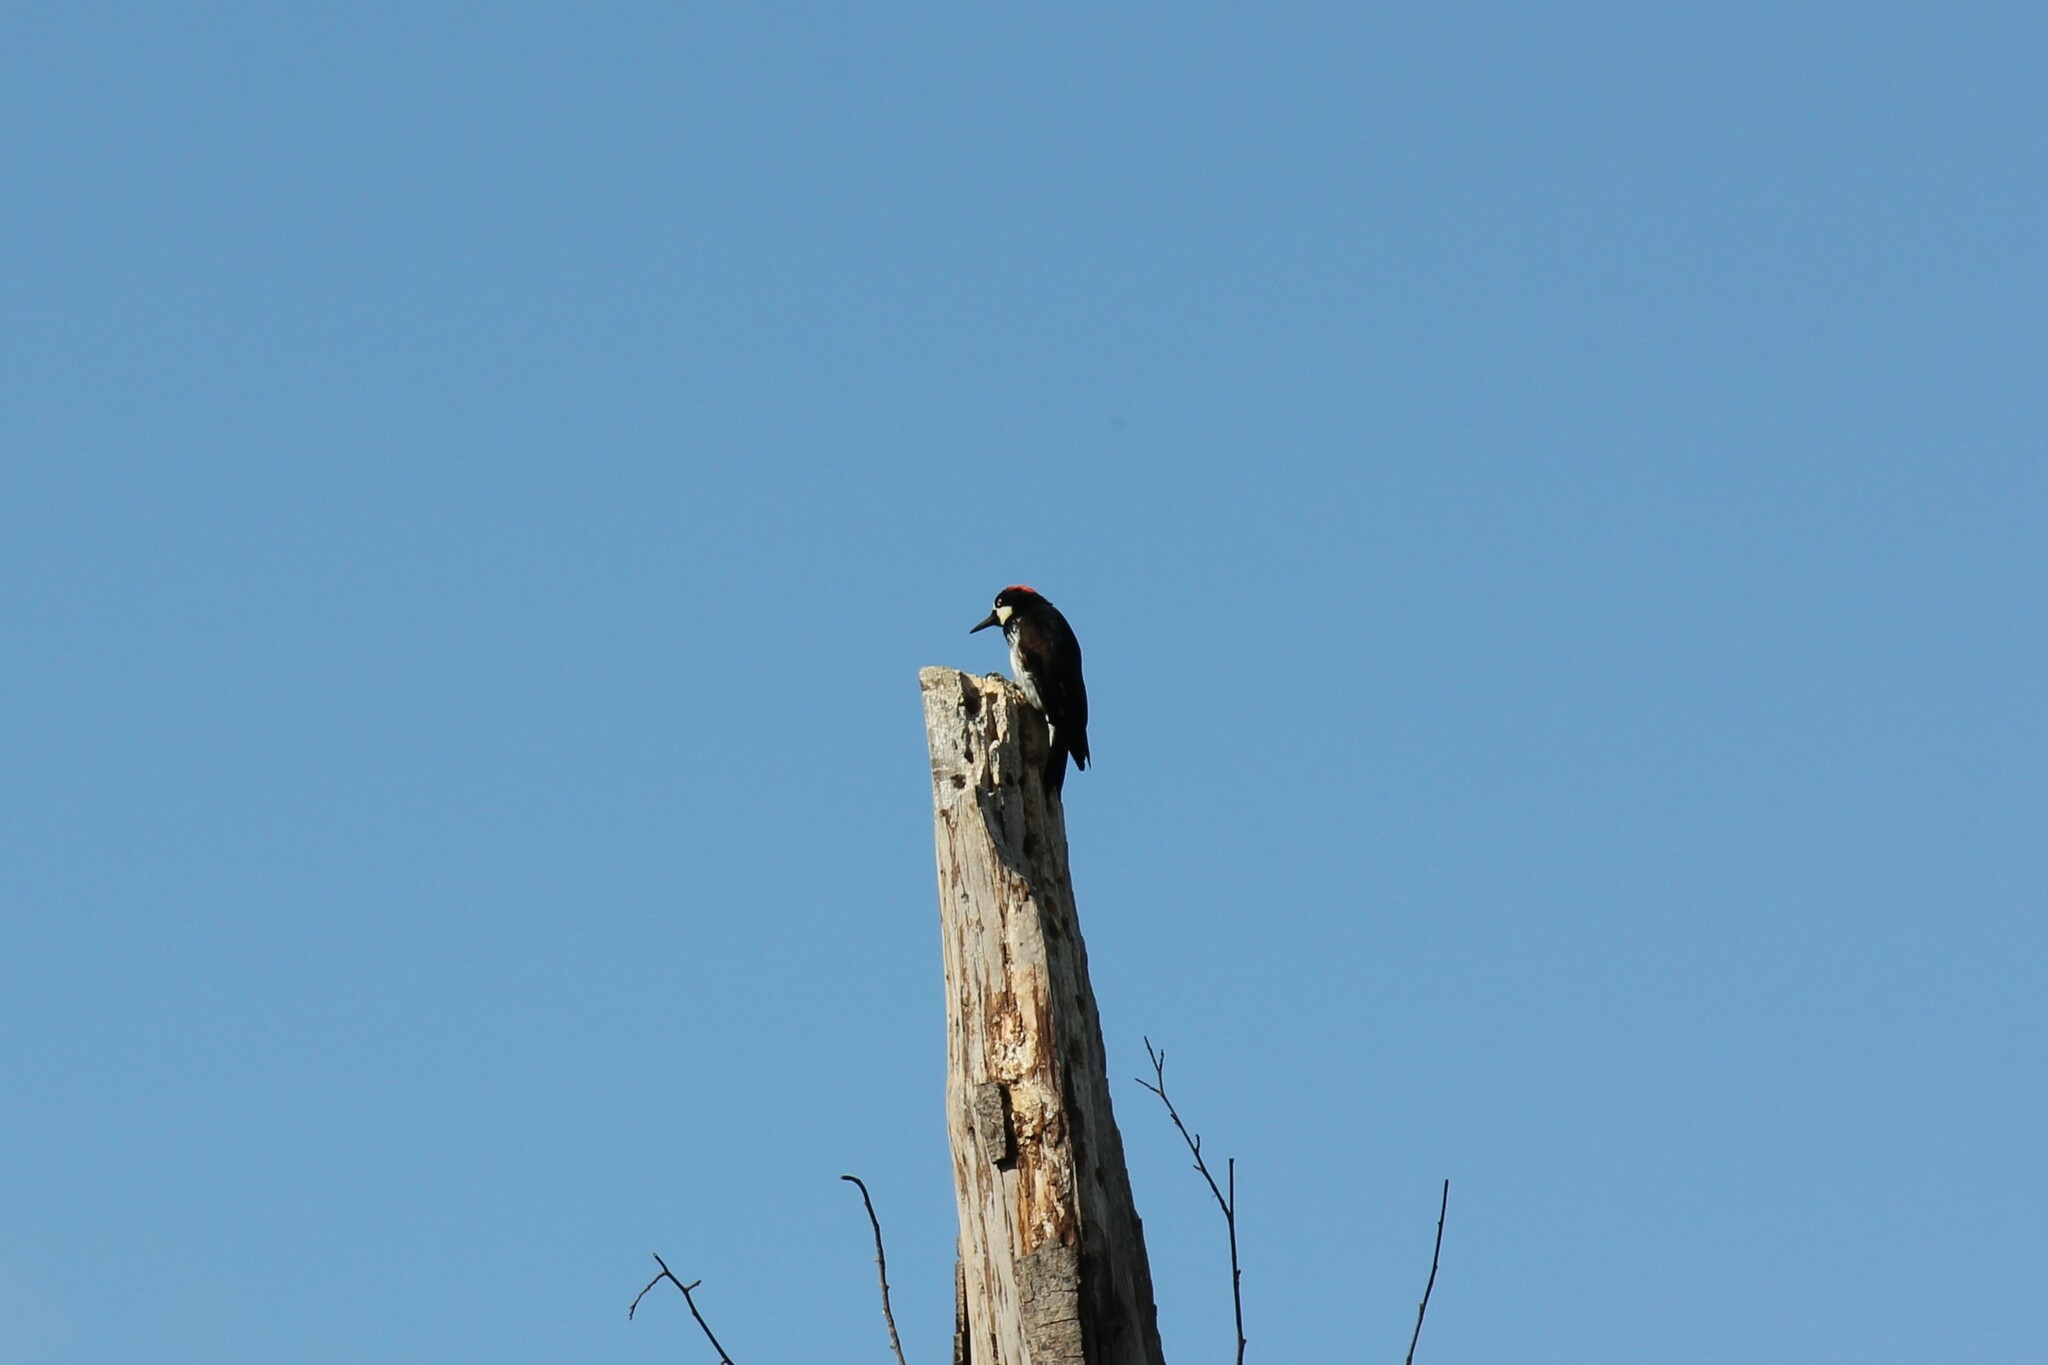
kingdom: Animalia
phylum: Chordata
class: Aves
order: Piciformes
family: Picidae
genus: Melanerpes
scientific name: Melanerpes formicivorus
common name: Acorn woodpecker
